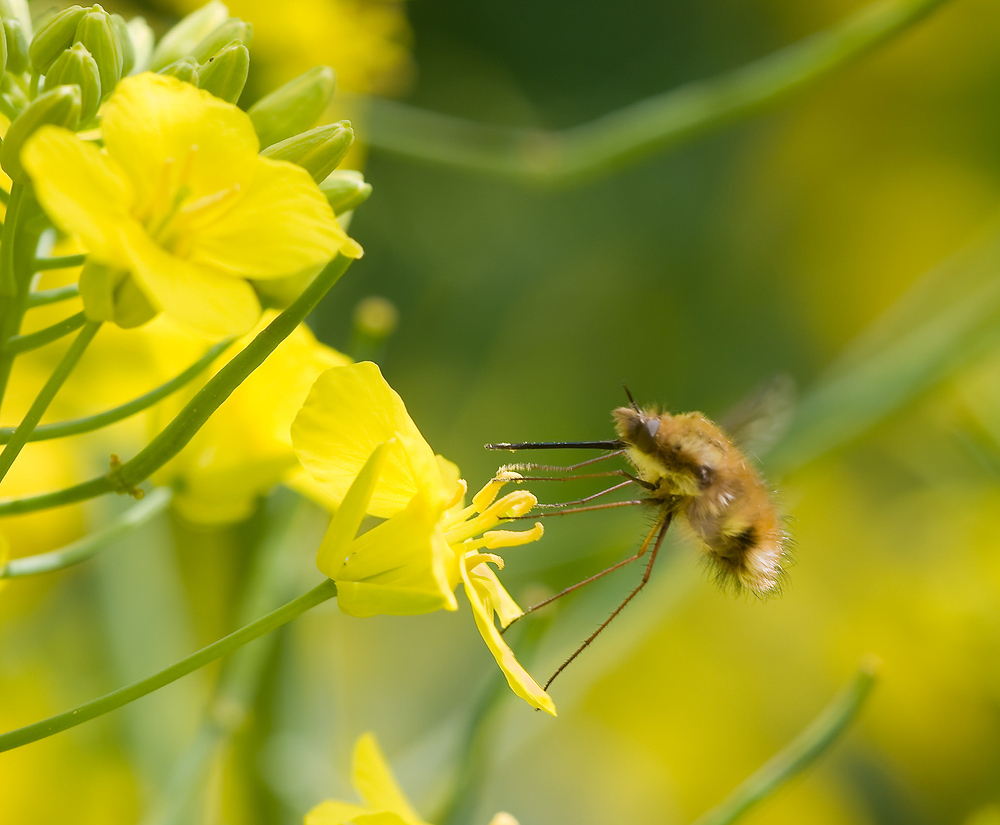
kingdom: Animalia
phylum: Arthropoda
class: Insecta
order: Diptera
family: Bombyliidae
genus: Bombylius
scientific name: Bombylius major
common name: Bee fly
